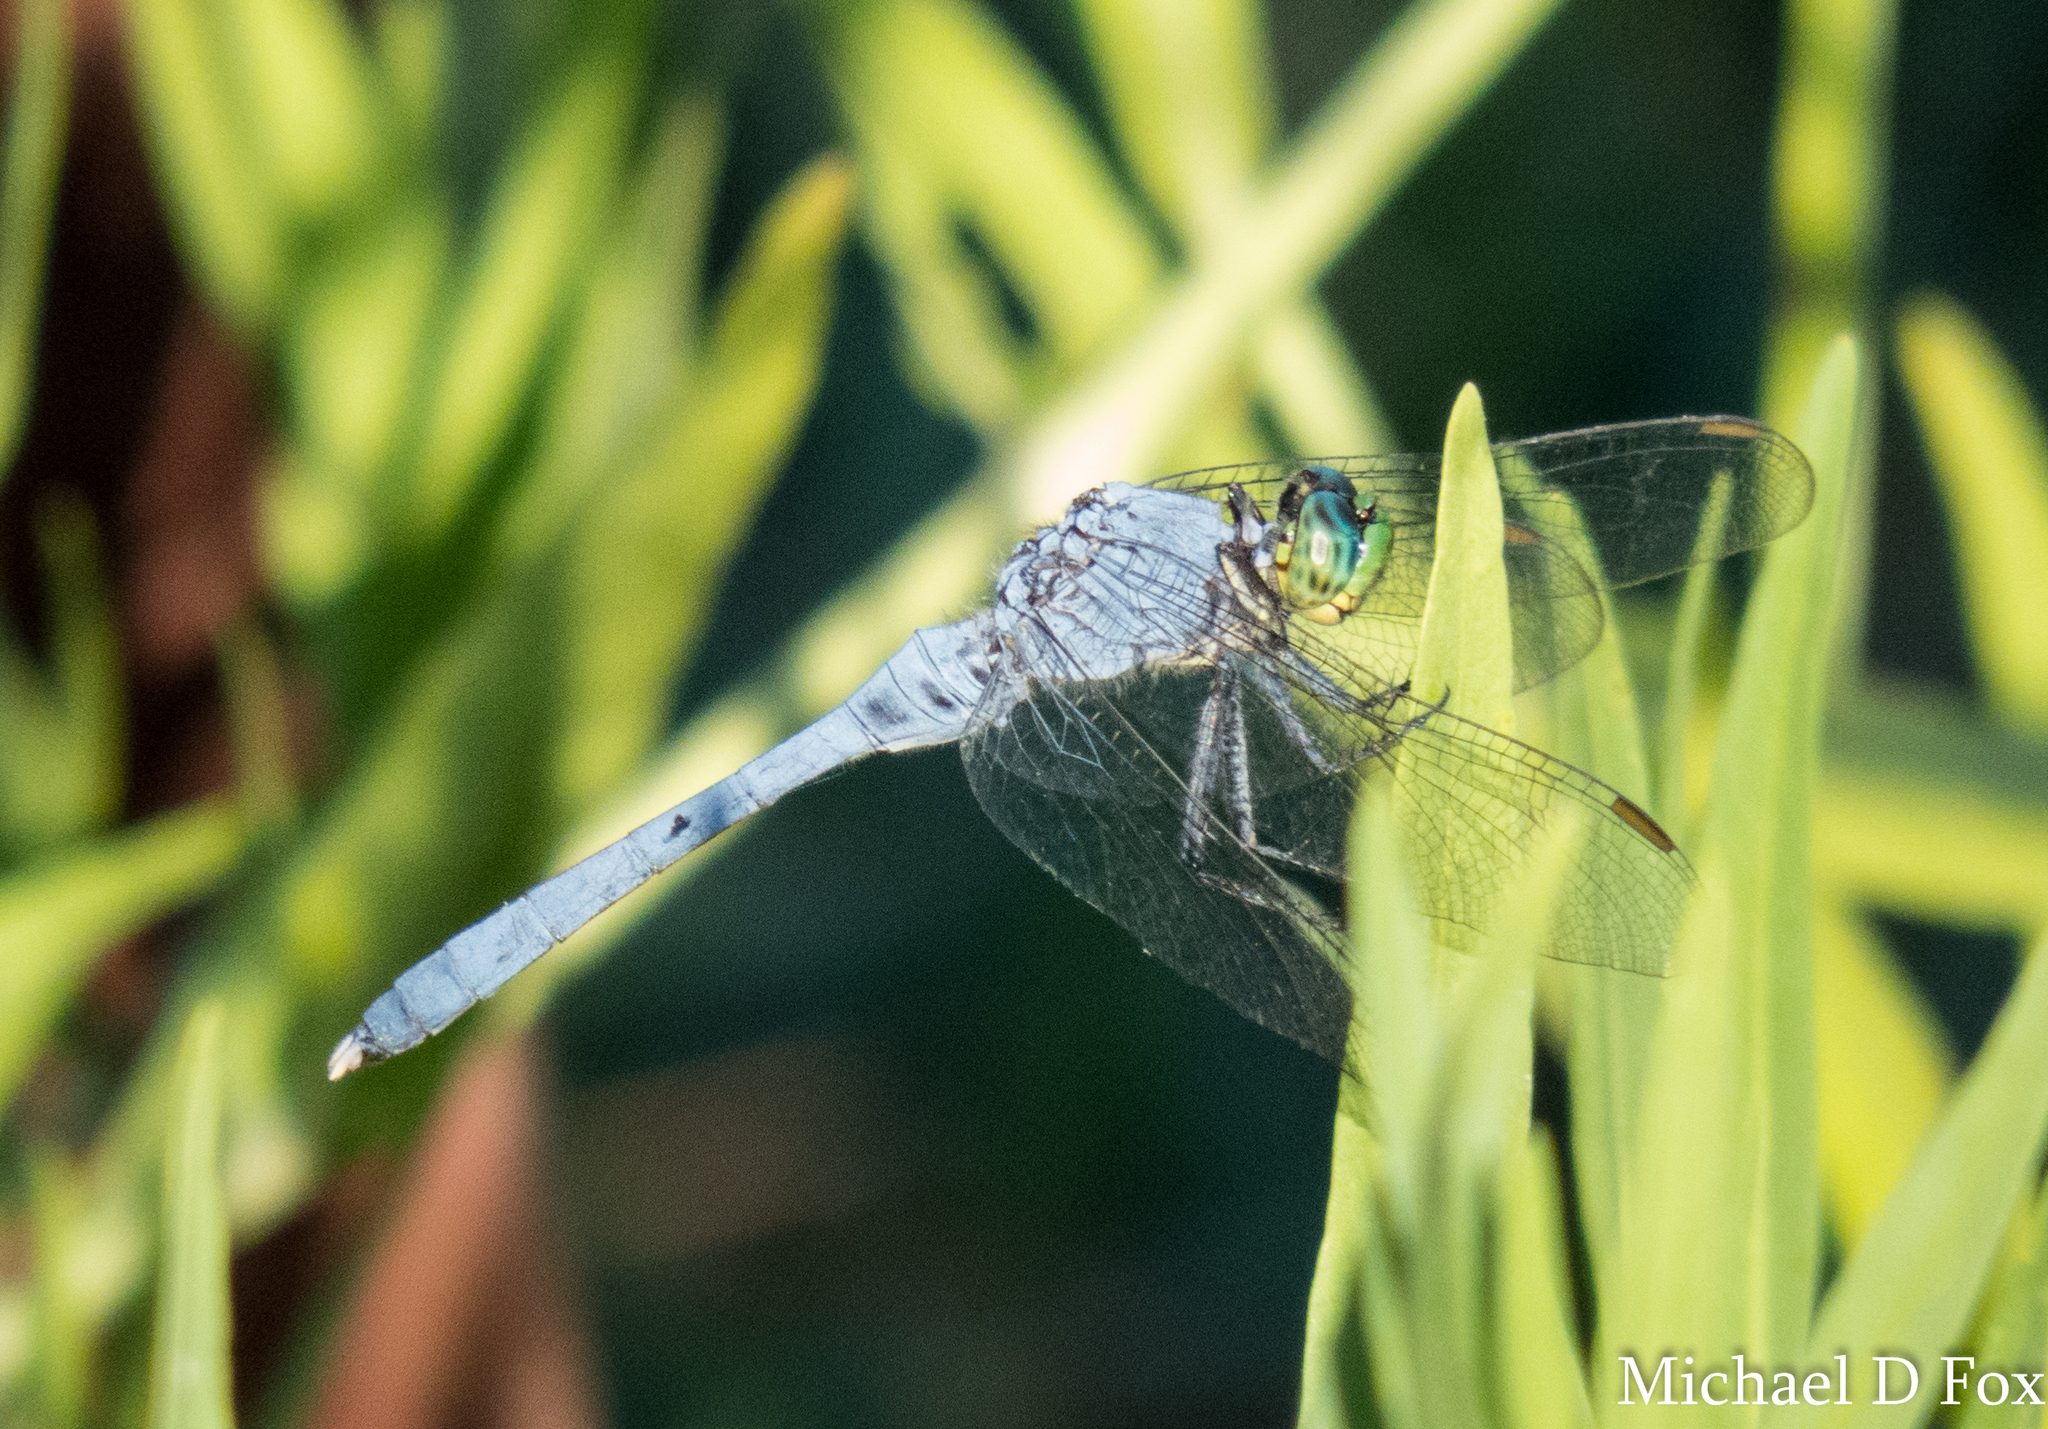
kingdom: Animalia
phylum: Arthropoda
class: Insecta
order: Odonata
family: Libellulidae
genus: Erythemis
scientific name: Erythemis simplicicollis
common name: Eastern pondhawk
